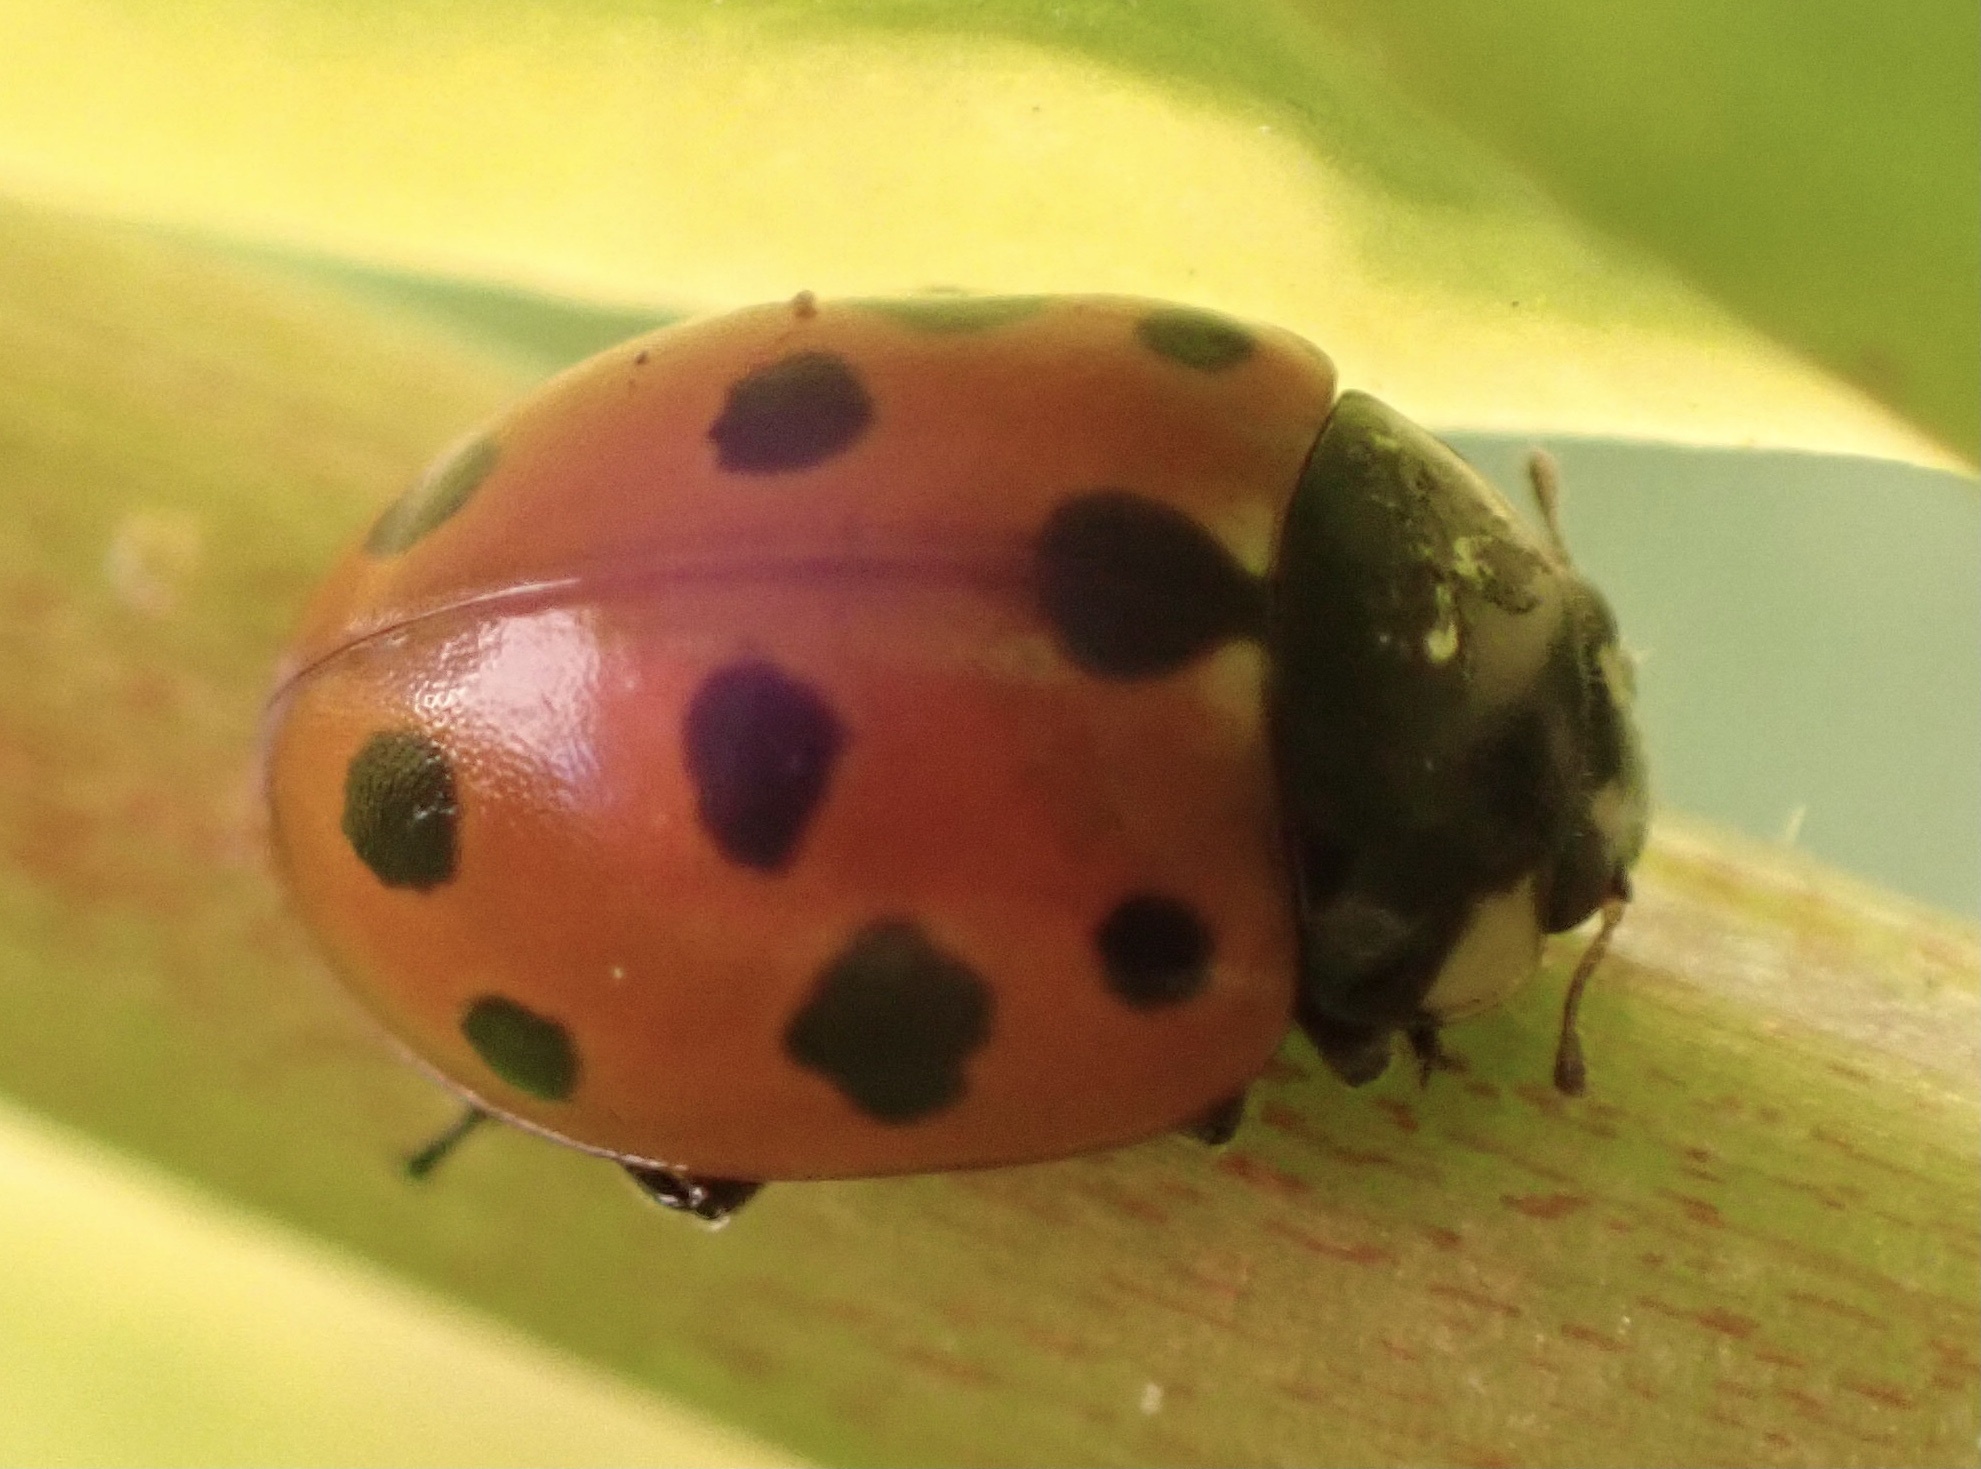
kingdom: Animalia
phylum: Arthropoda
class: Insecta
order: Coleoptera
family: Coccinellidae
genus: Coccinella
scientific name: Coccinella undecimpunctata
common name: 11-spot ladybird
